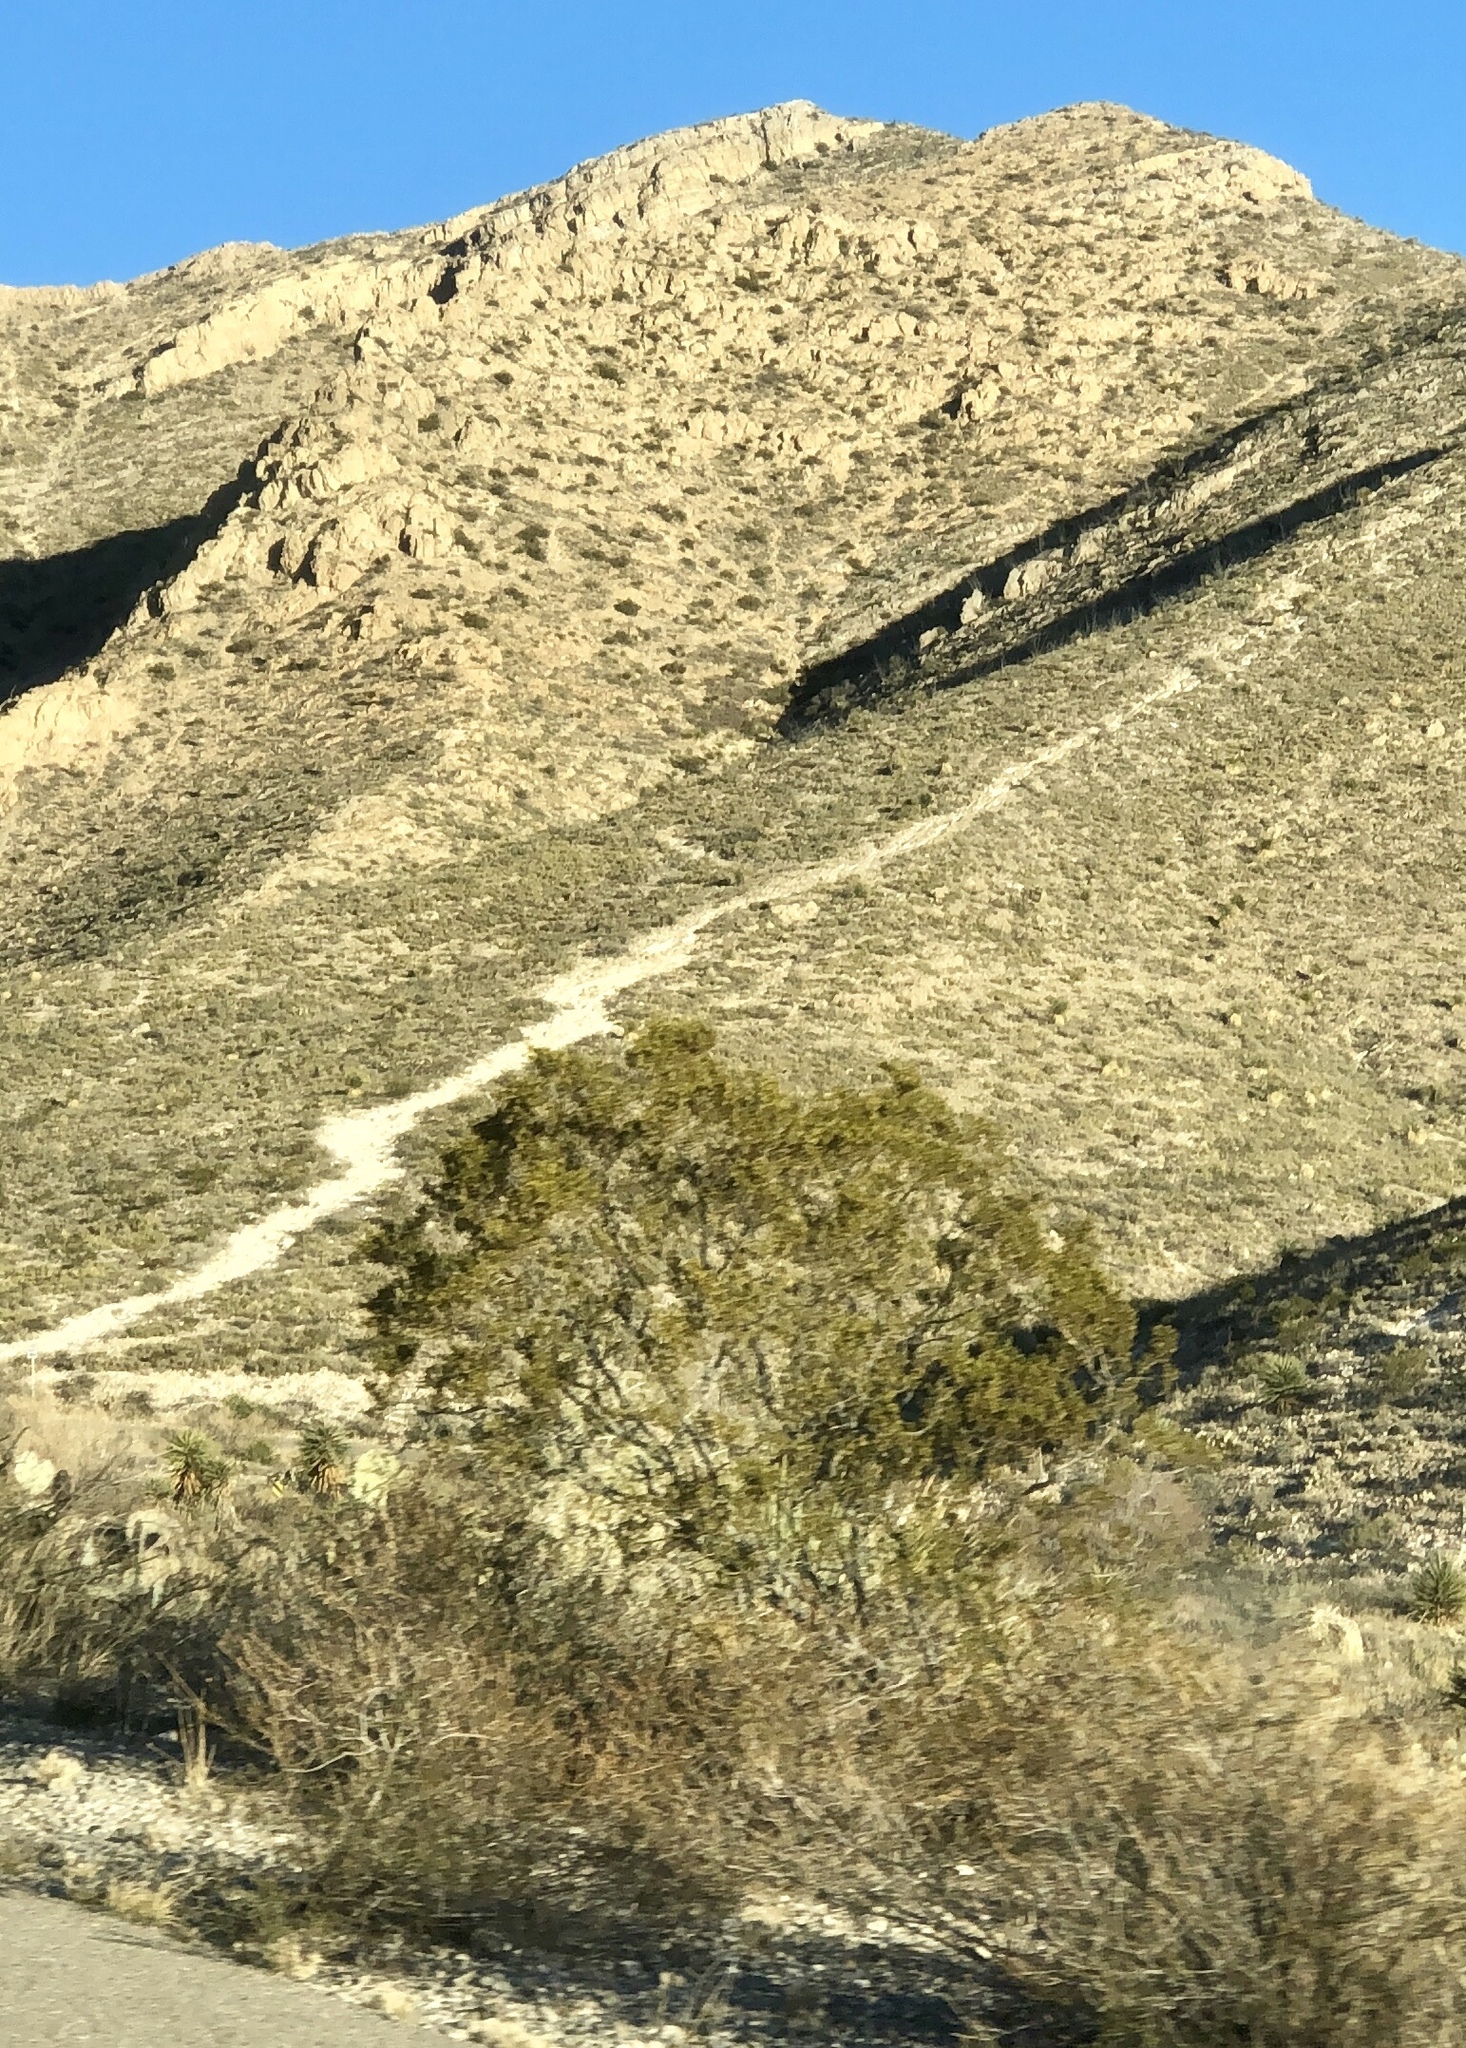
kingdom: Plantae
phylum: Tracheophyta
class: Magnoliopsida
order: Zygophyllales
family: Zygophyllaceae
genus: Larrea
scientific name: Larrea tridentata
